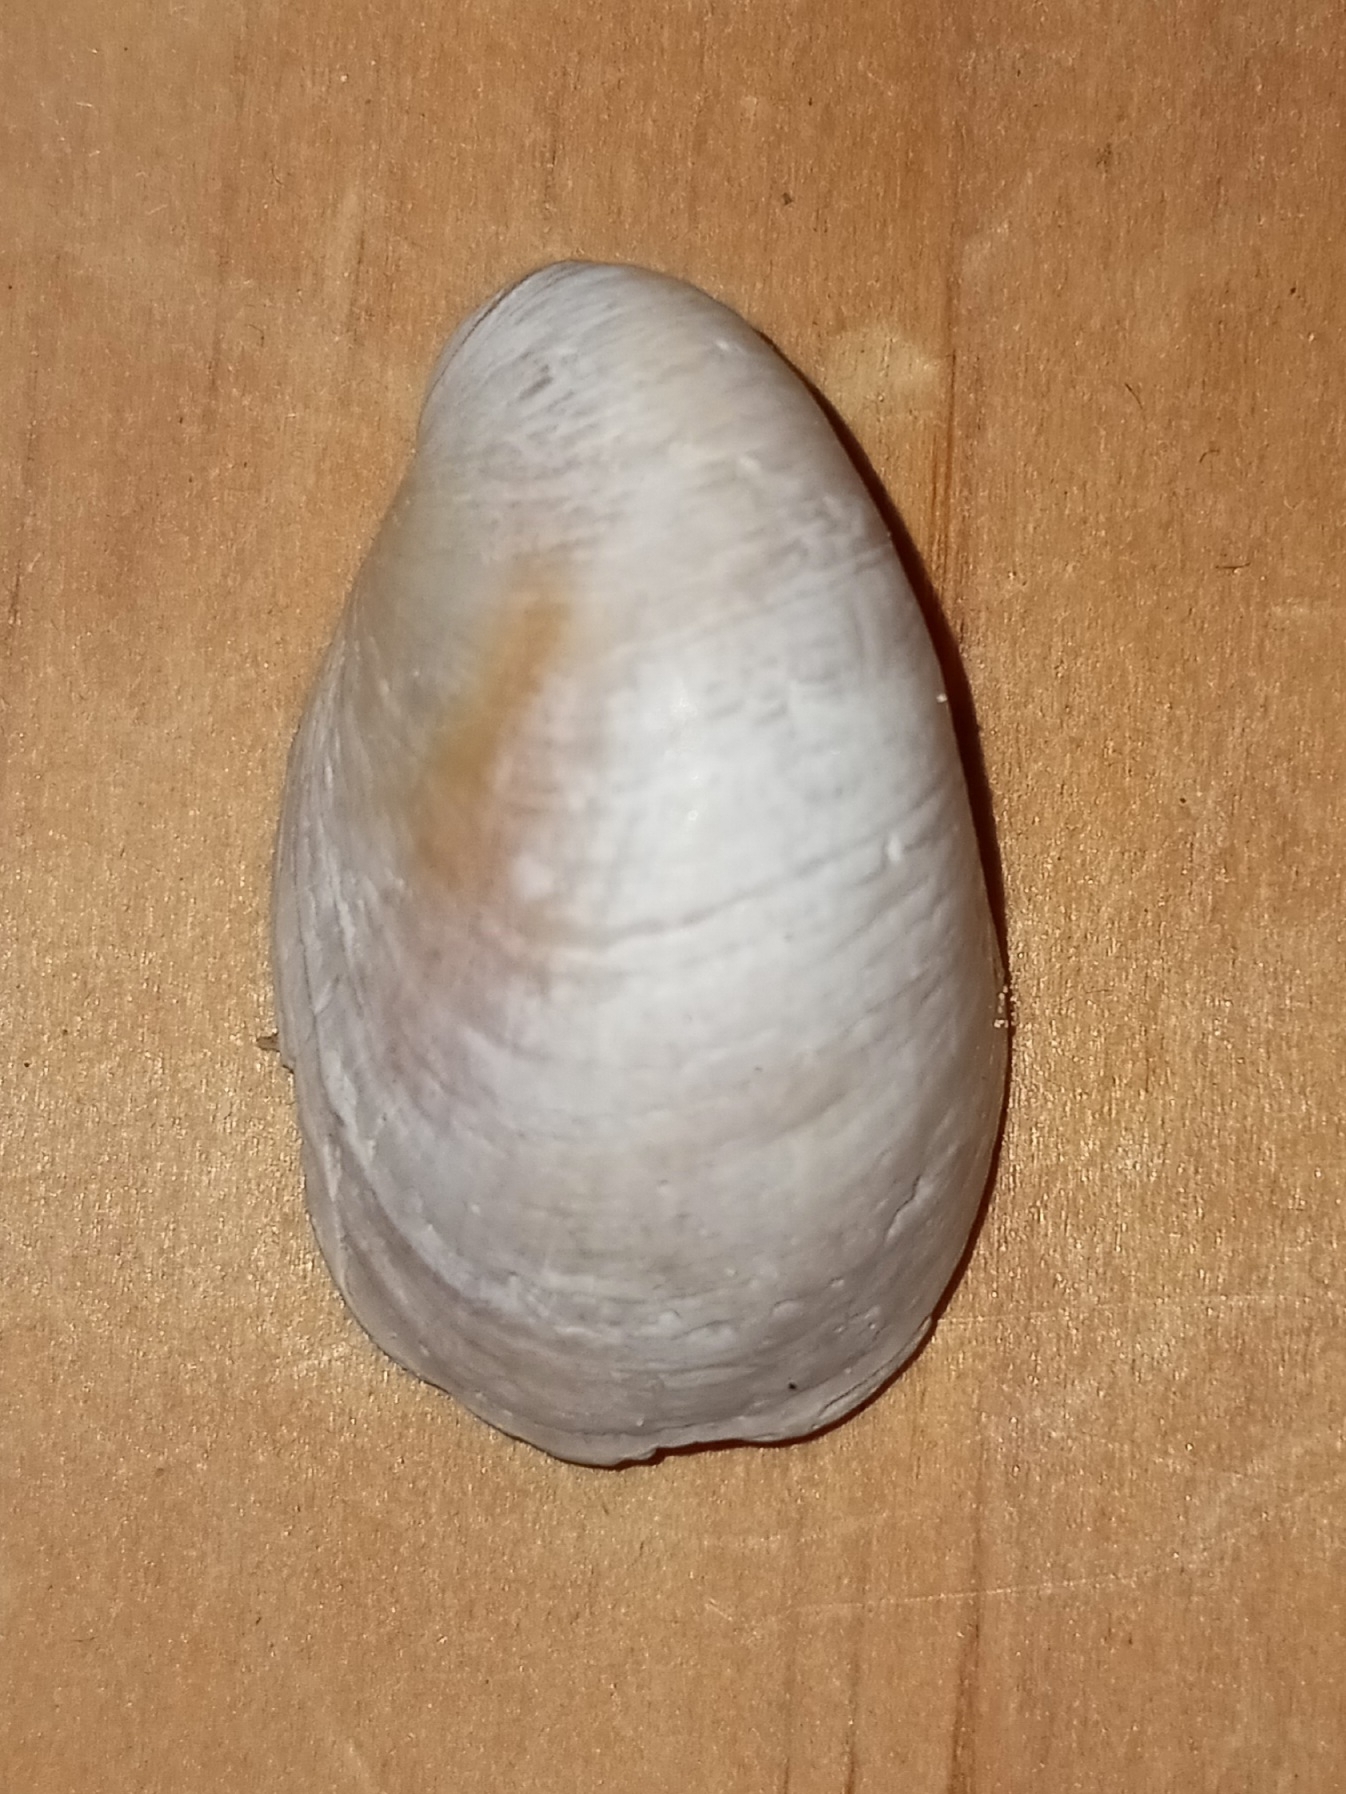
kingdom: Animalia
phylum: Mollusca
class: Gastropoda
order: Littorinimorpha
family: Calyptraeidae
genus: Crepidula
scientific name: Crepidula fornicata
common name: Slipper limpet
